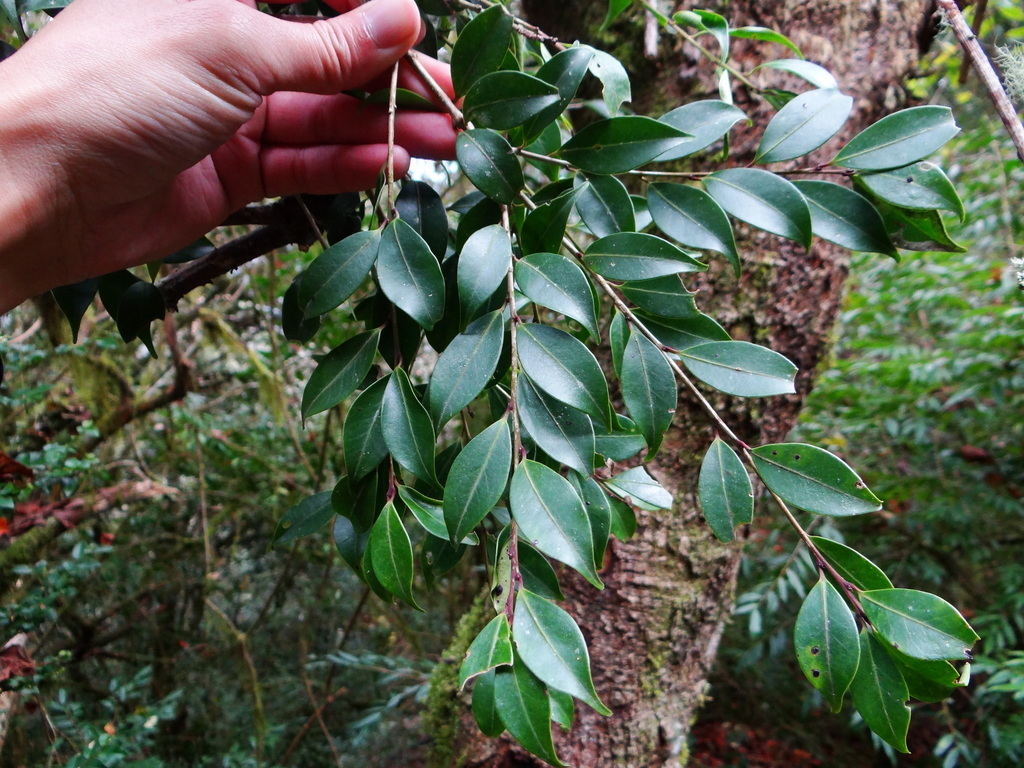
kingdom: Plantae
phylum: Tracheophyta
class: Magnoliopsida
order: Aquifoliales
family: Aquifoliaceae
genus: Ilex
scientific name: Ilex hayataiana
